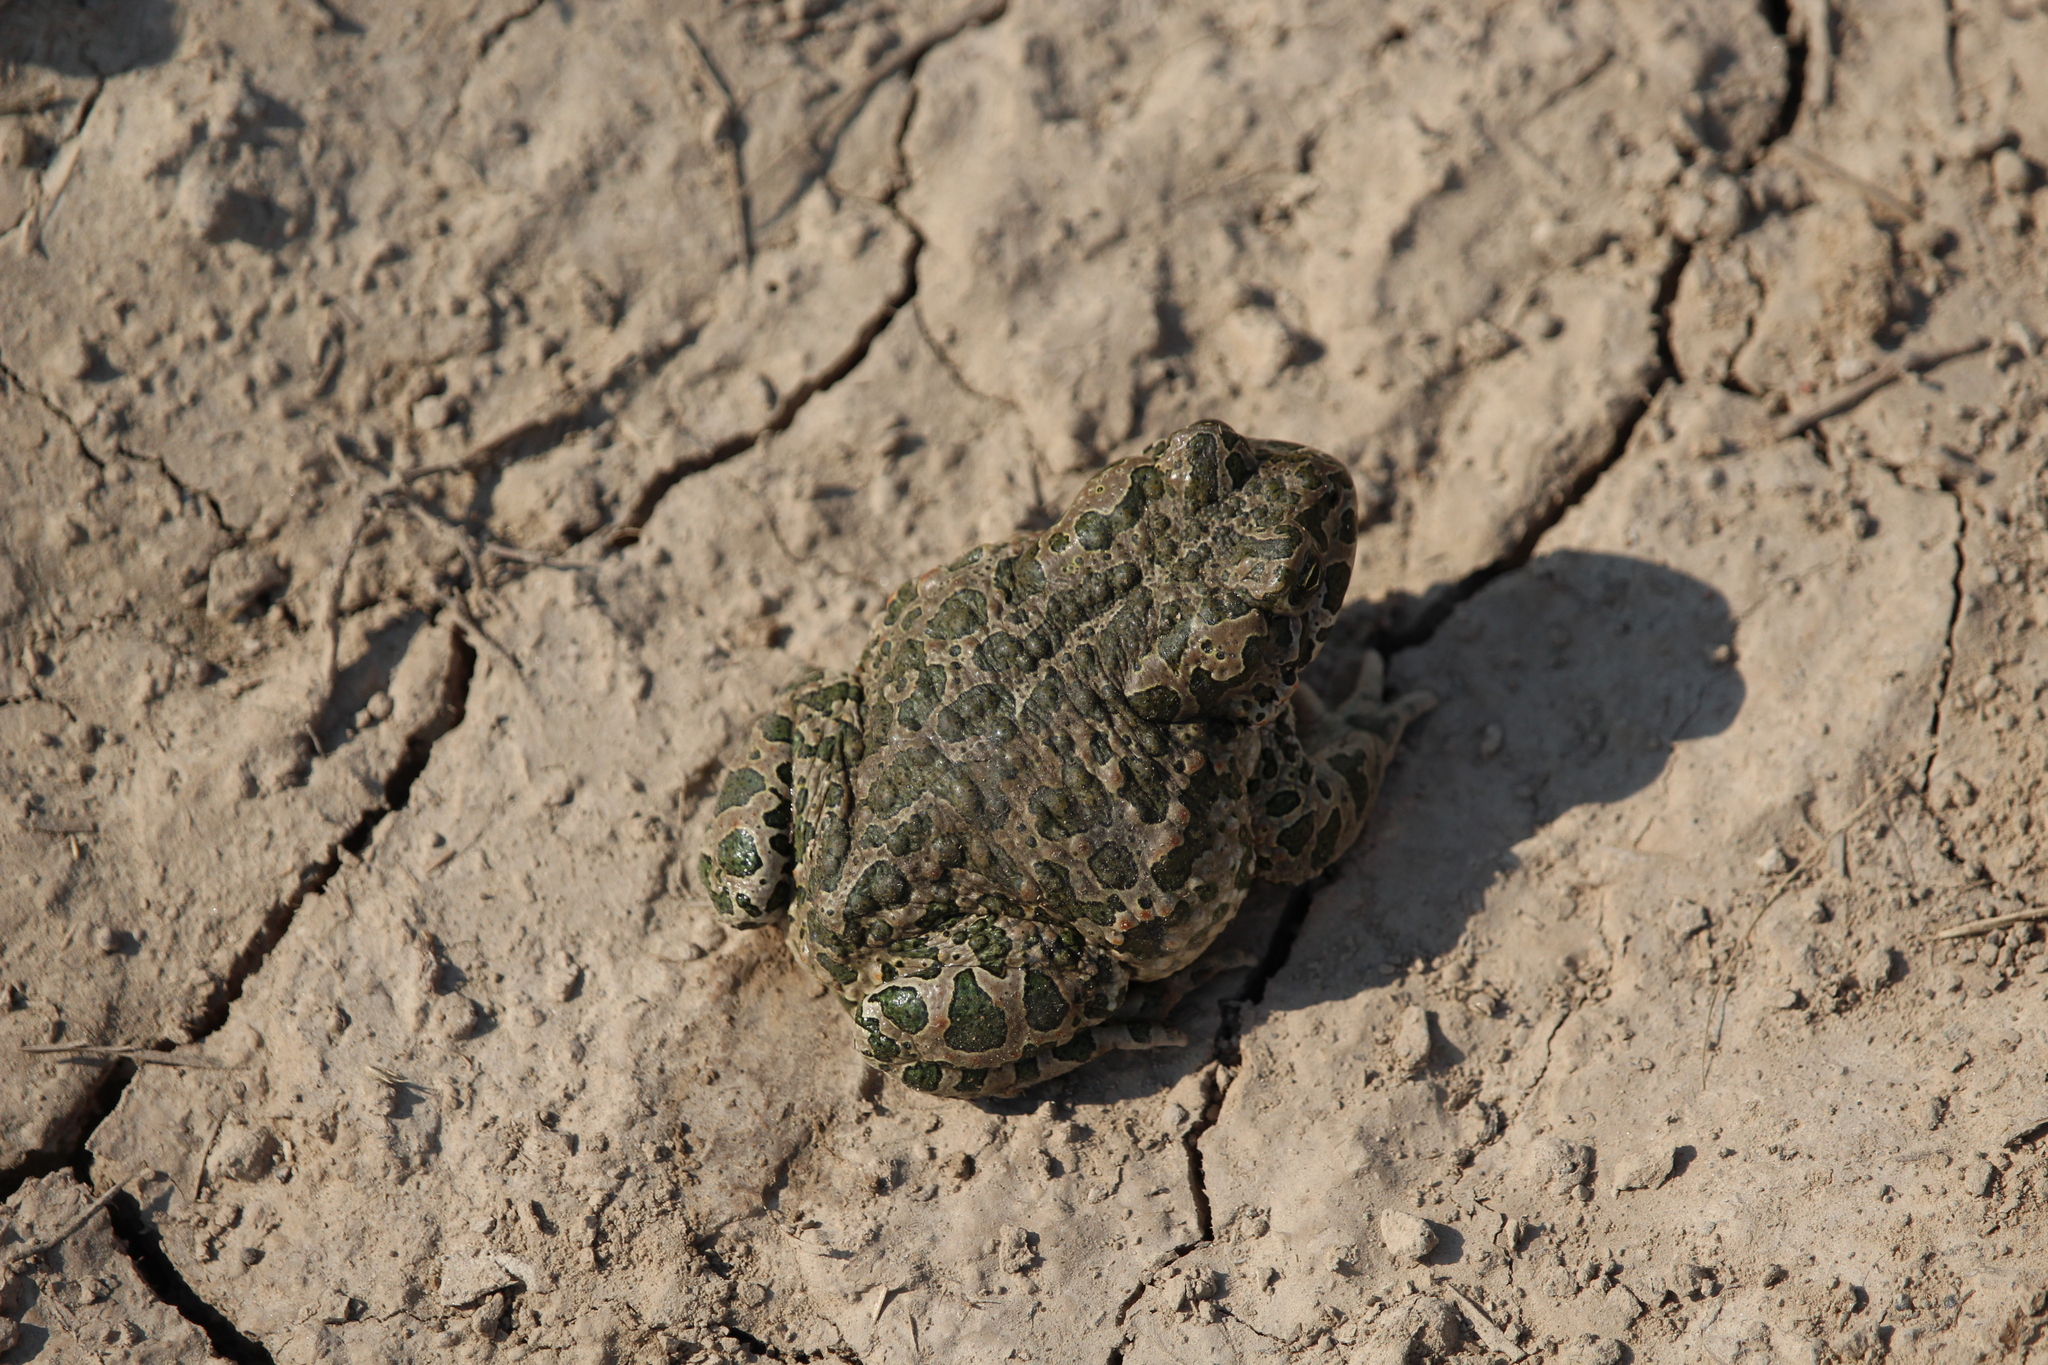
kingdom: Animalia
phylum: Chordata
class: Amphibia
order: Anura
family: Bufonidae
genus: Bufotes
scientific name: Bufotes viridis
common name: European green toad
